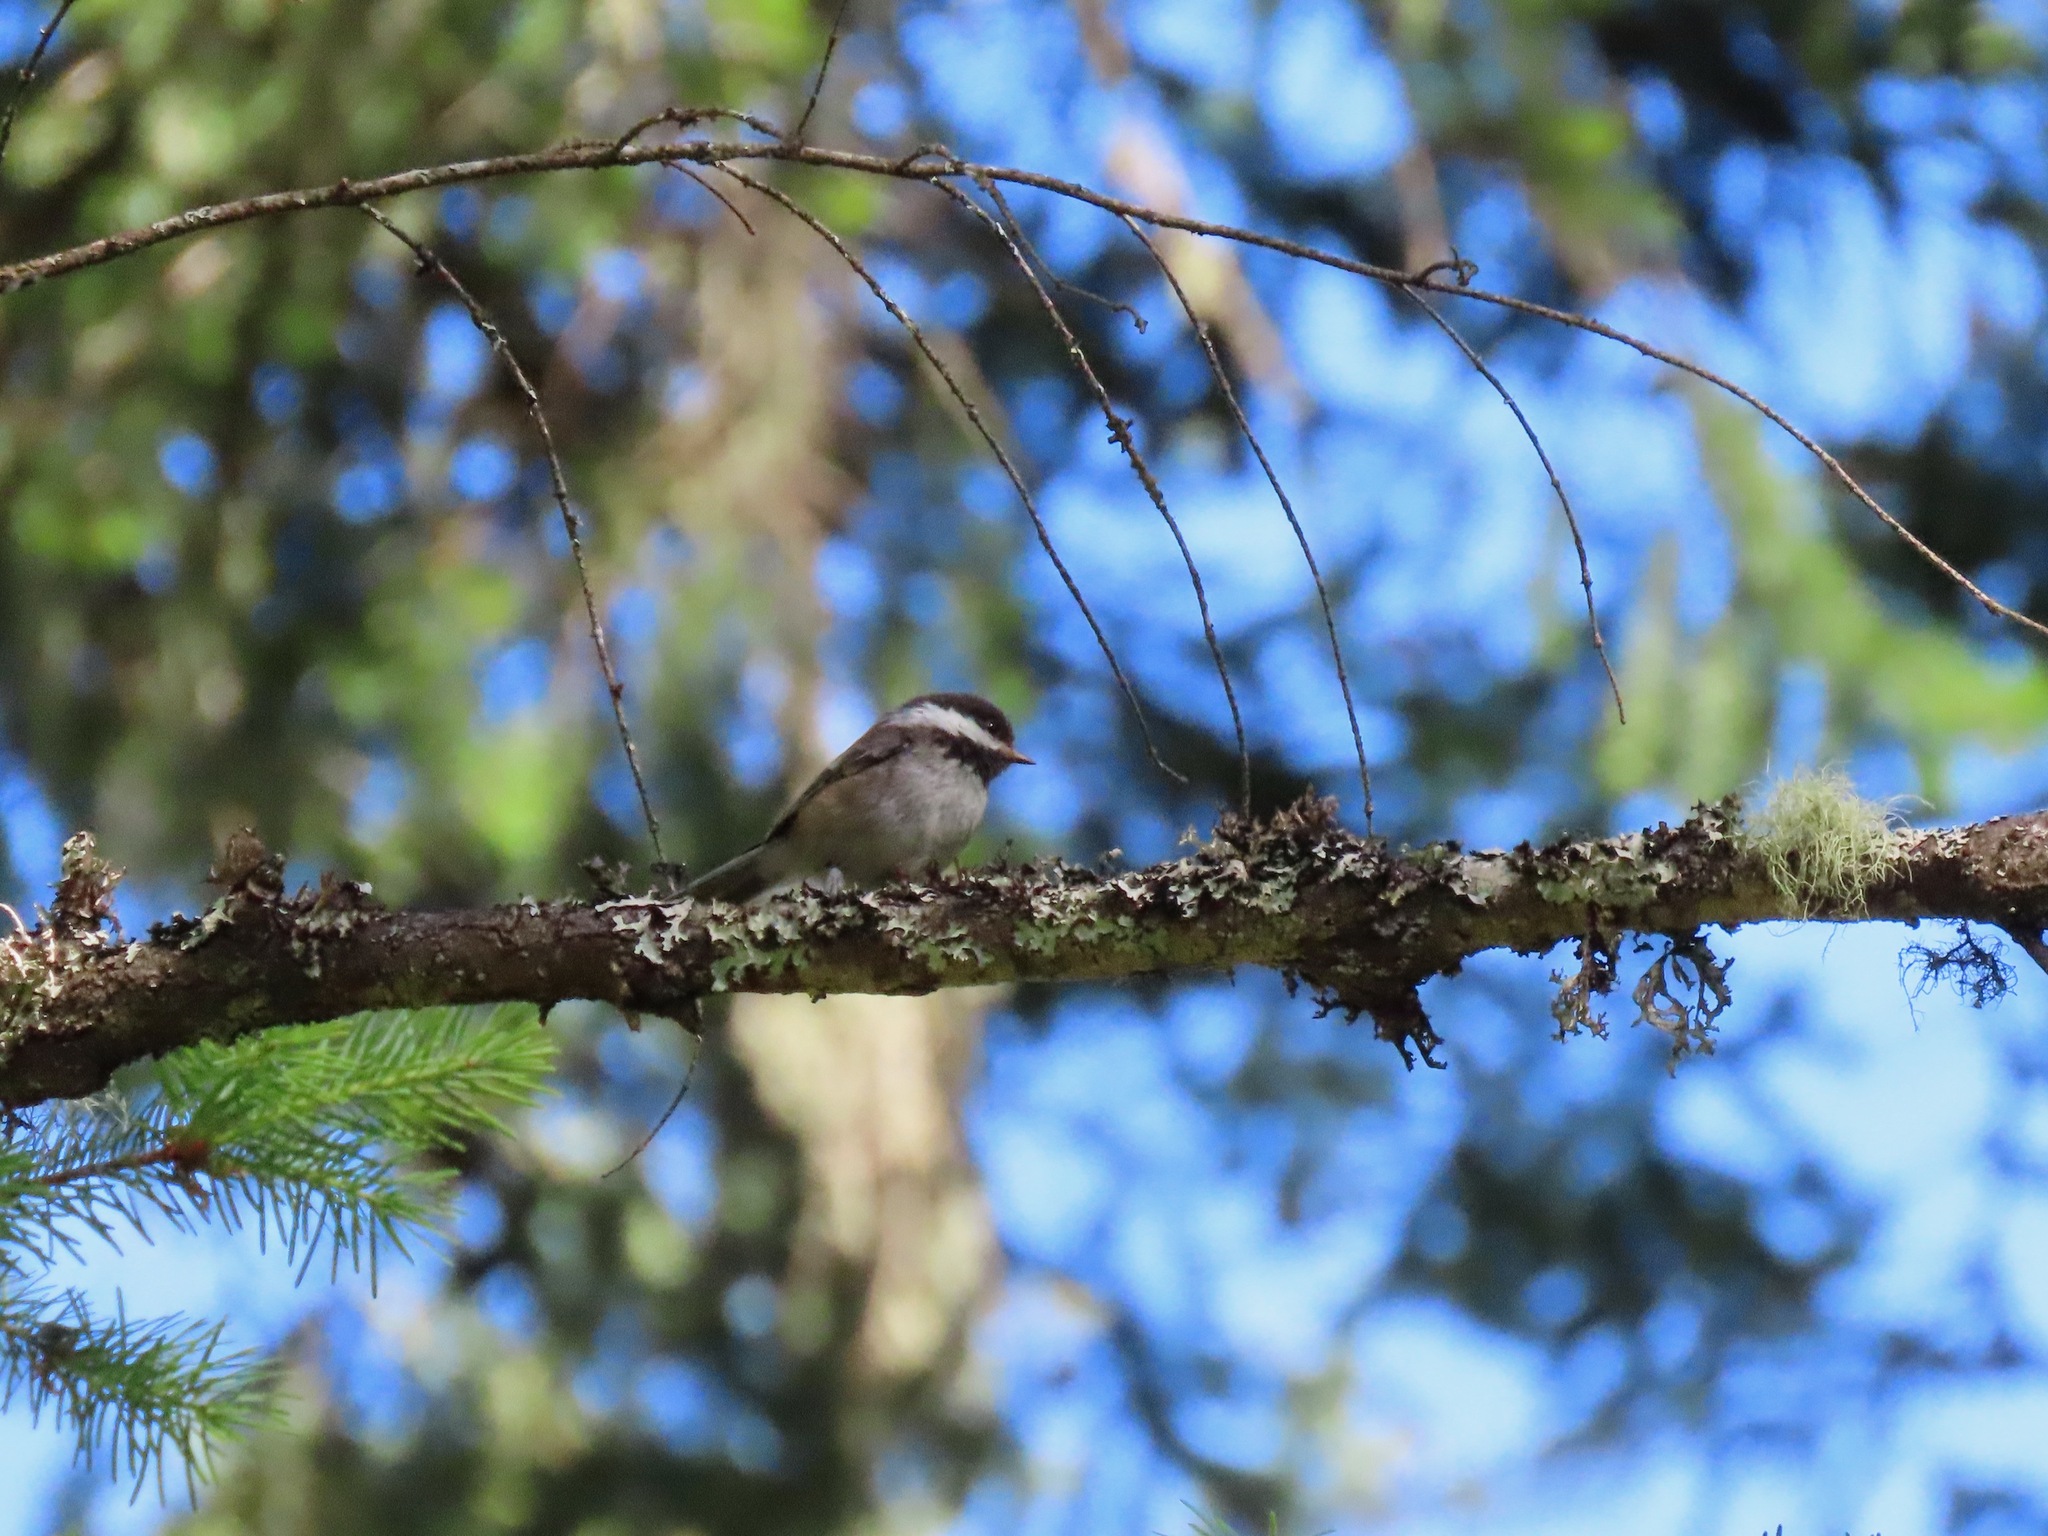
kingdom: Animalia
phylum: Chordata
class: Aves
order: Passeriformes
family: Paridae
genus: Poecile
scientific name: Poecile rufescens
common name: Chestnut-backed chickadee
